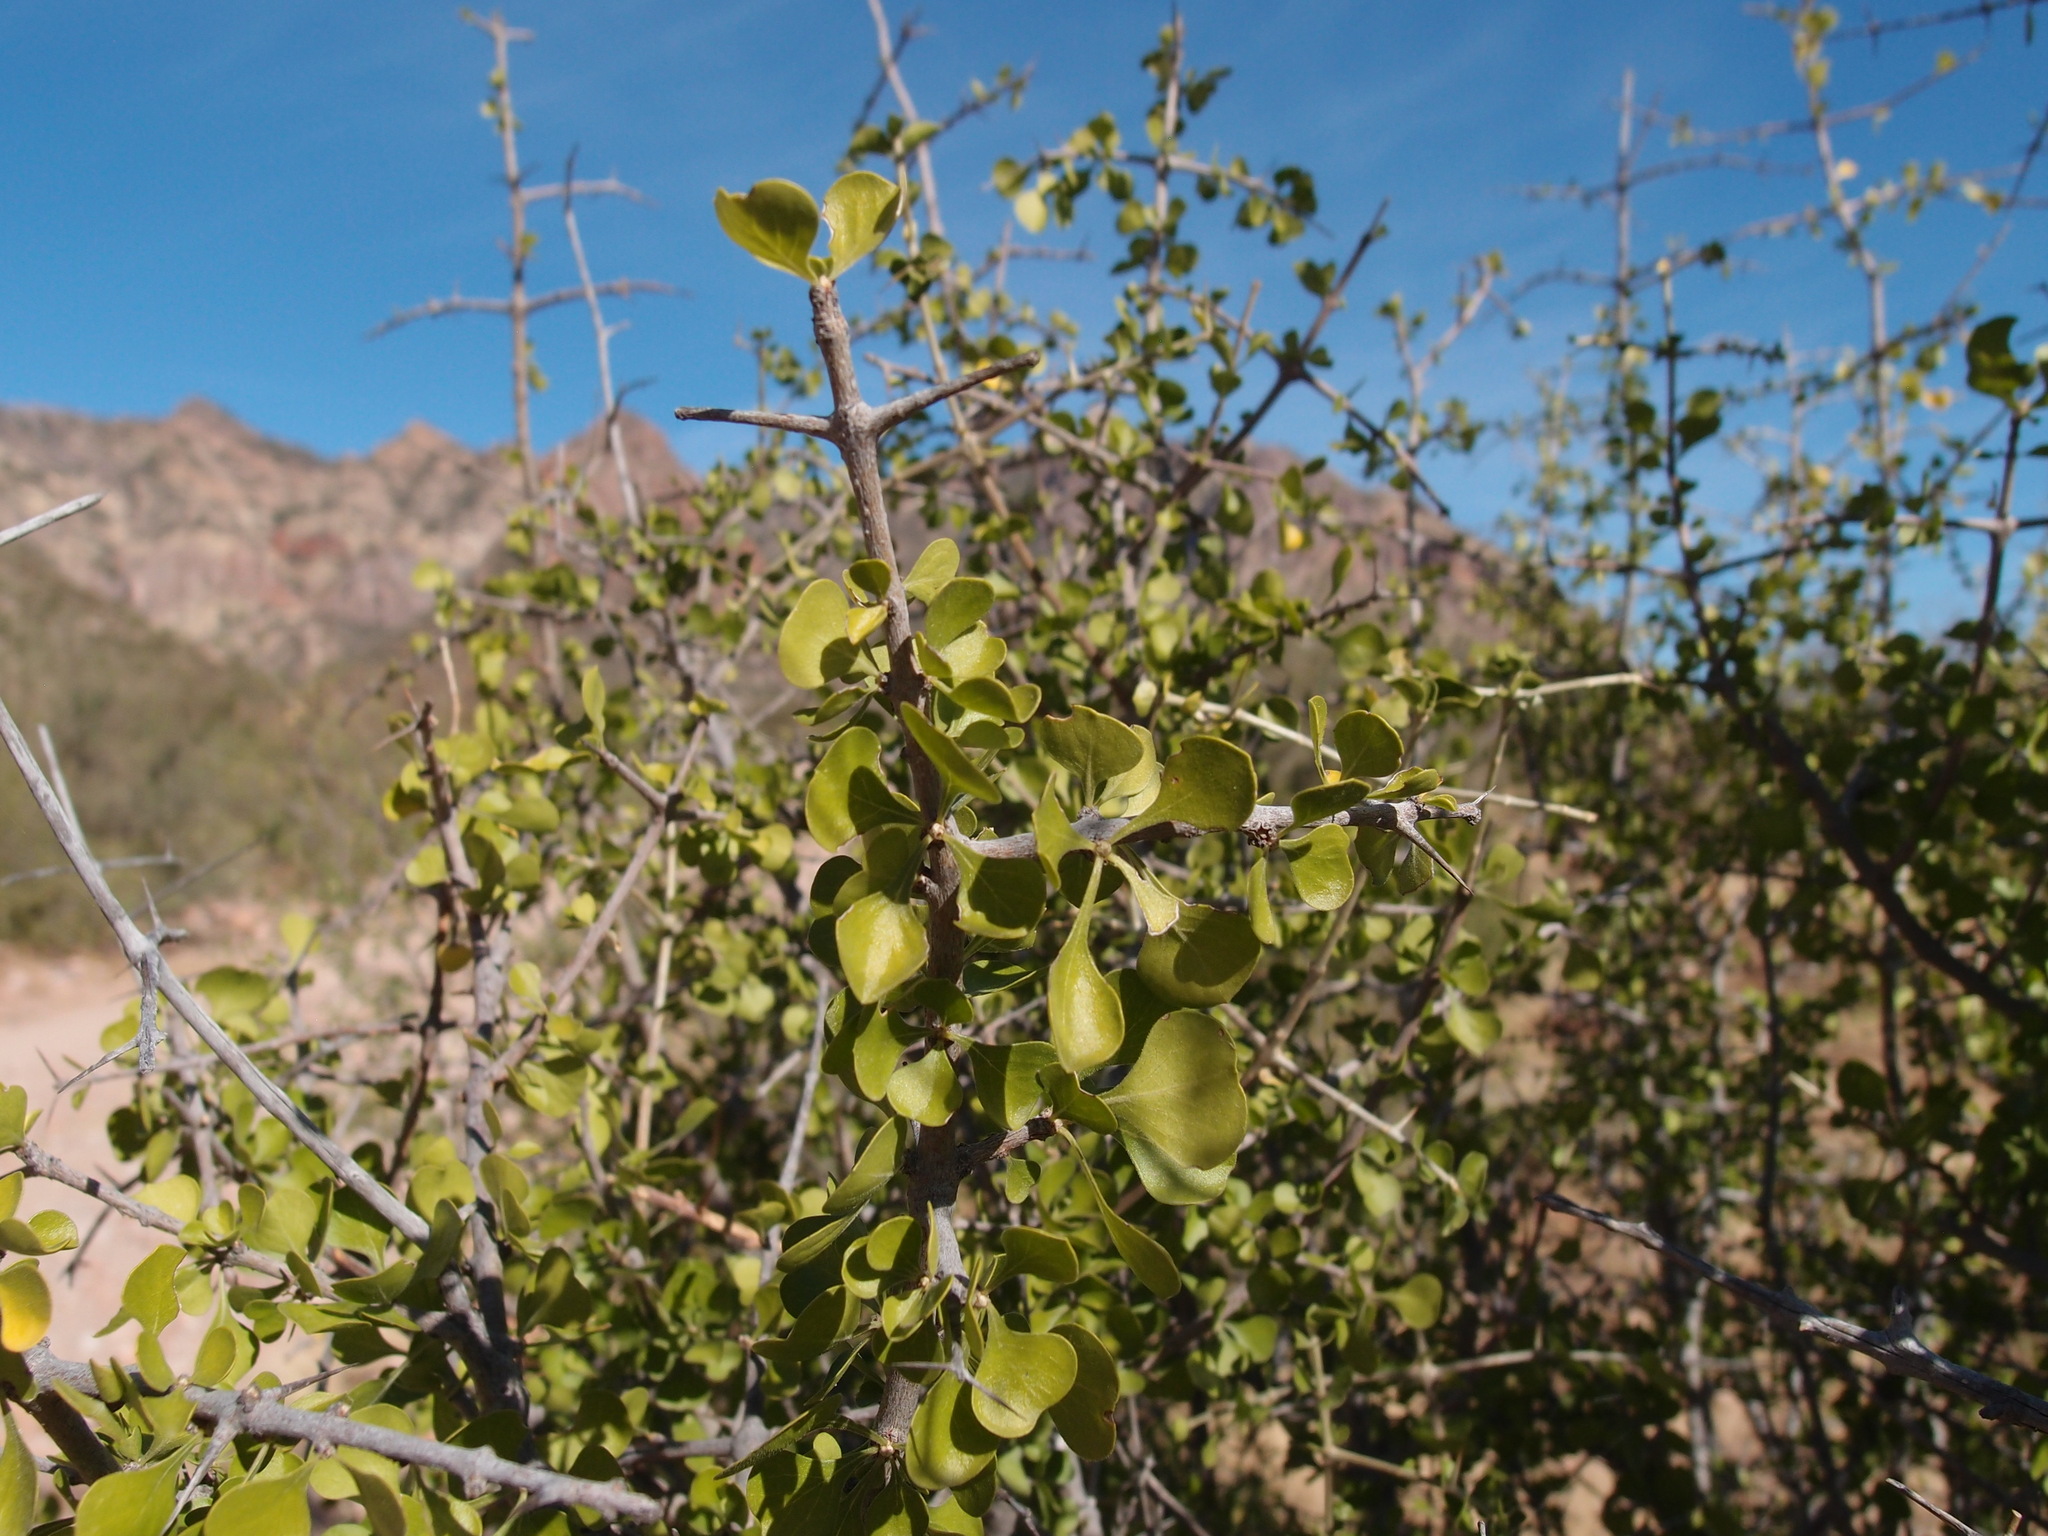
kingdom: Plantae
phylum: Tracheophyta
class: Magnoliopsida
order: Gentianales
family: Rubiaceae
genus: Randia
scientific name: Randia thurberi
